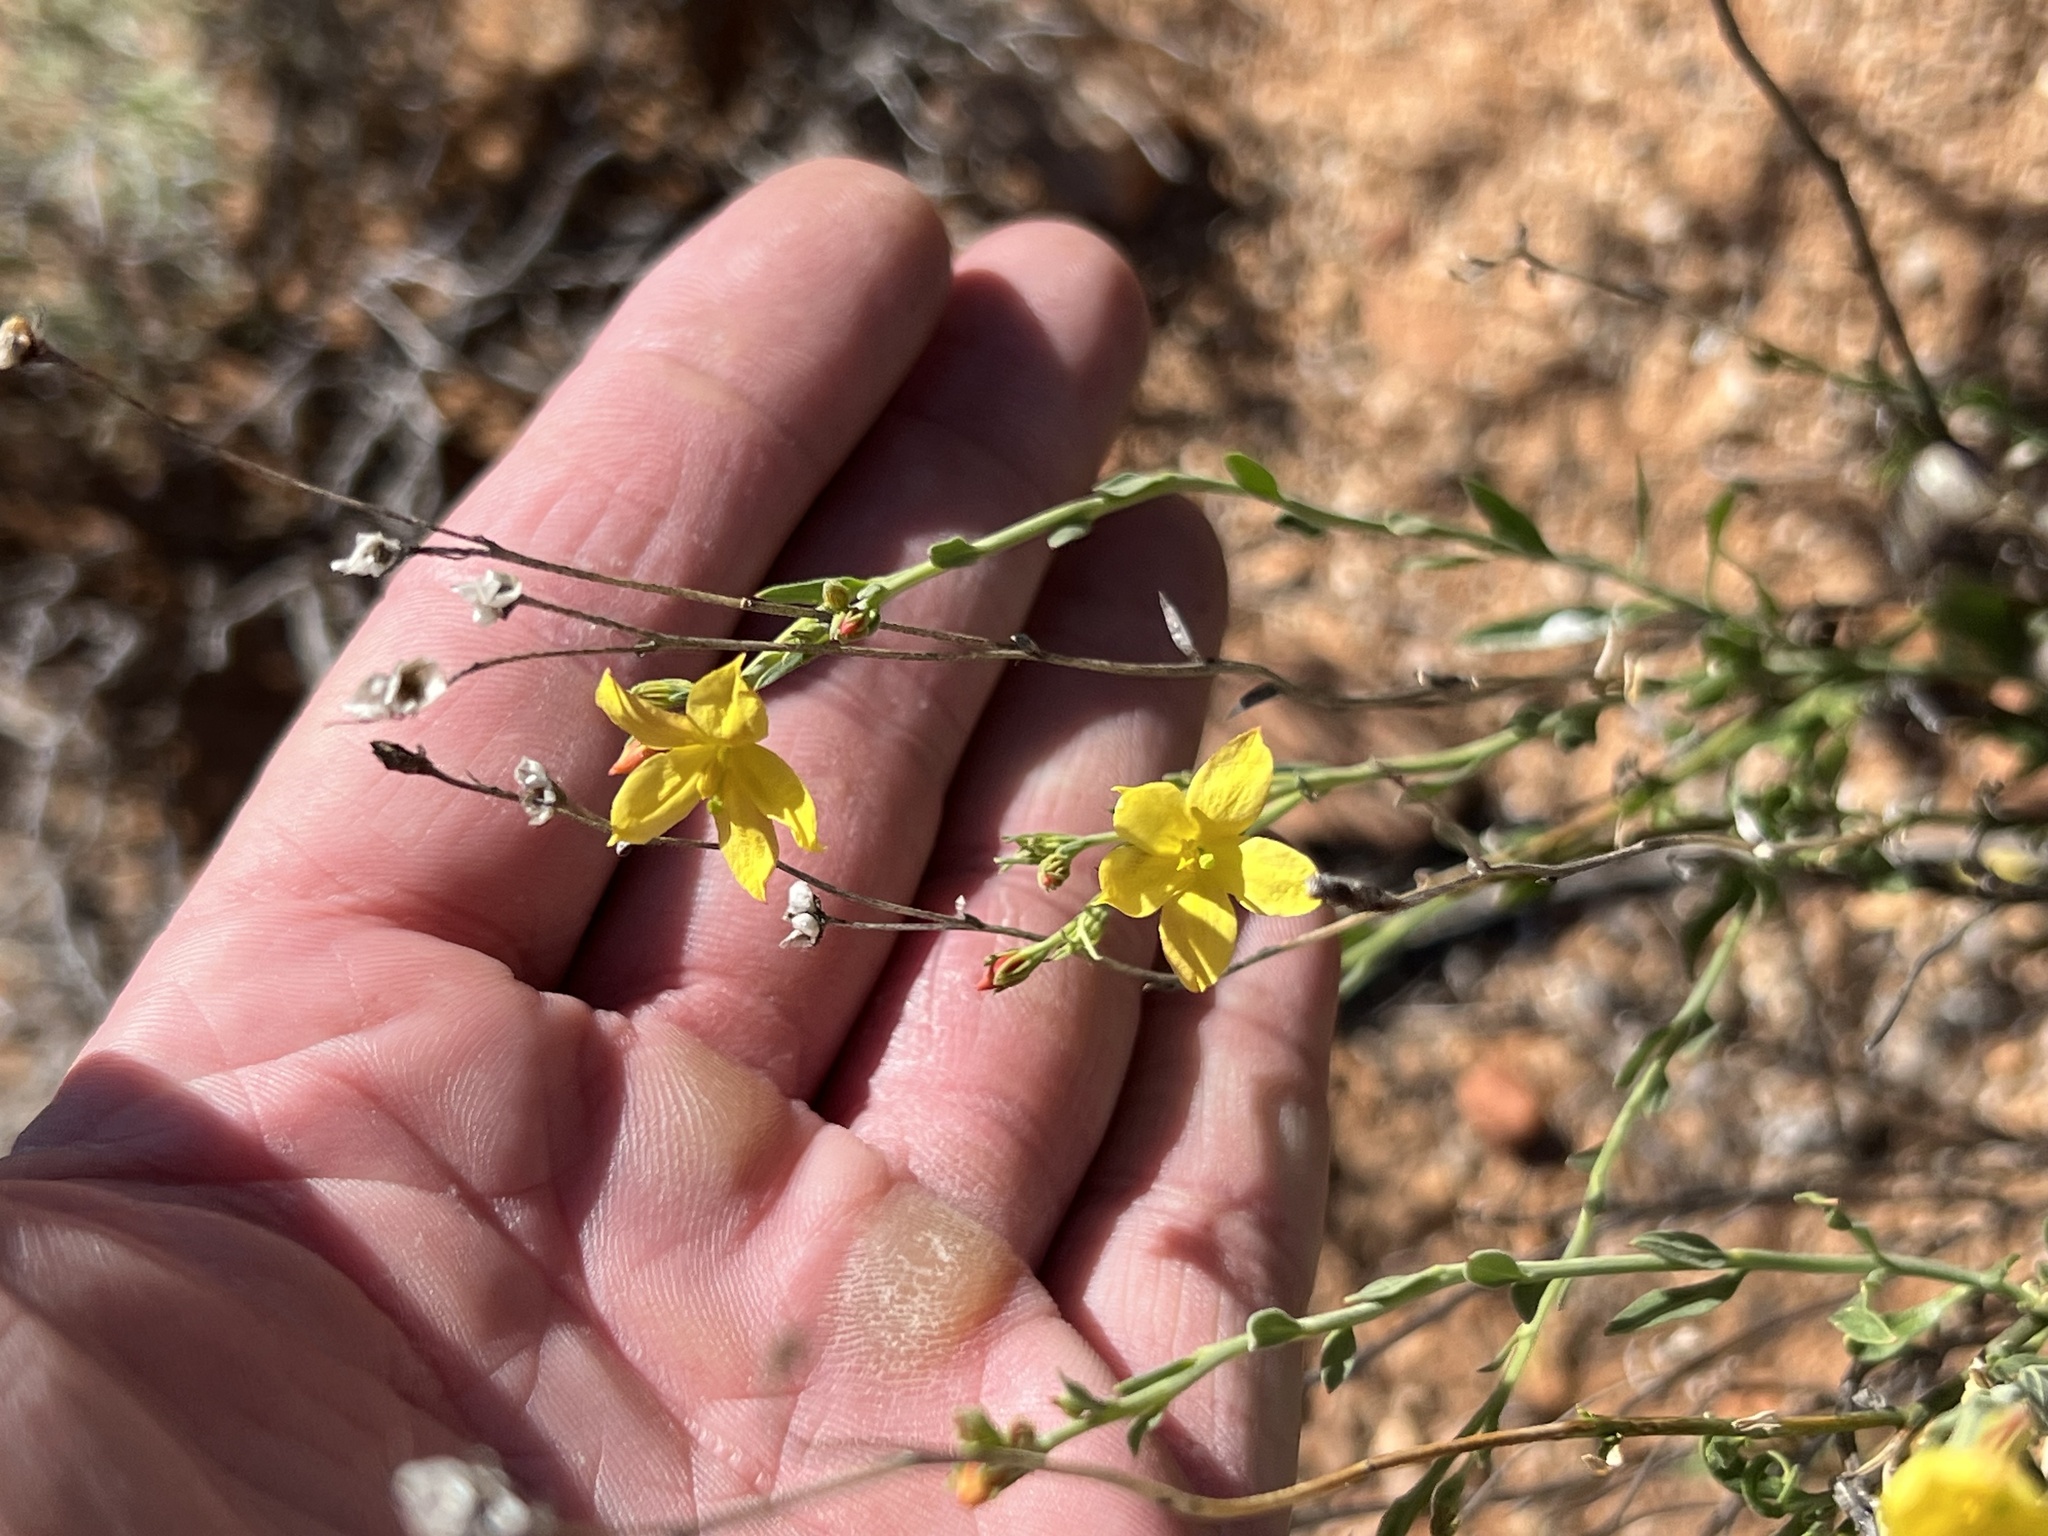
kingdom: Plantae
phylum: Tracheophyta
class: Magnoliopsida
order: Lamiales
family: Oleaceae
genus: Menodora
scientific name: Menodora scabra
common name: Rough menodora
